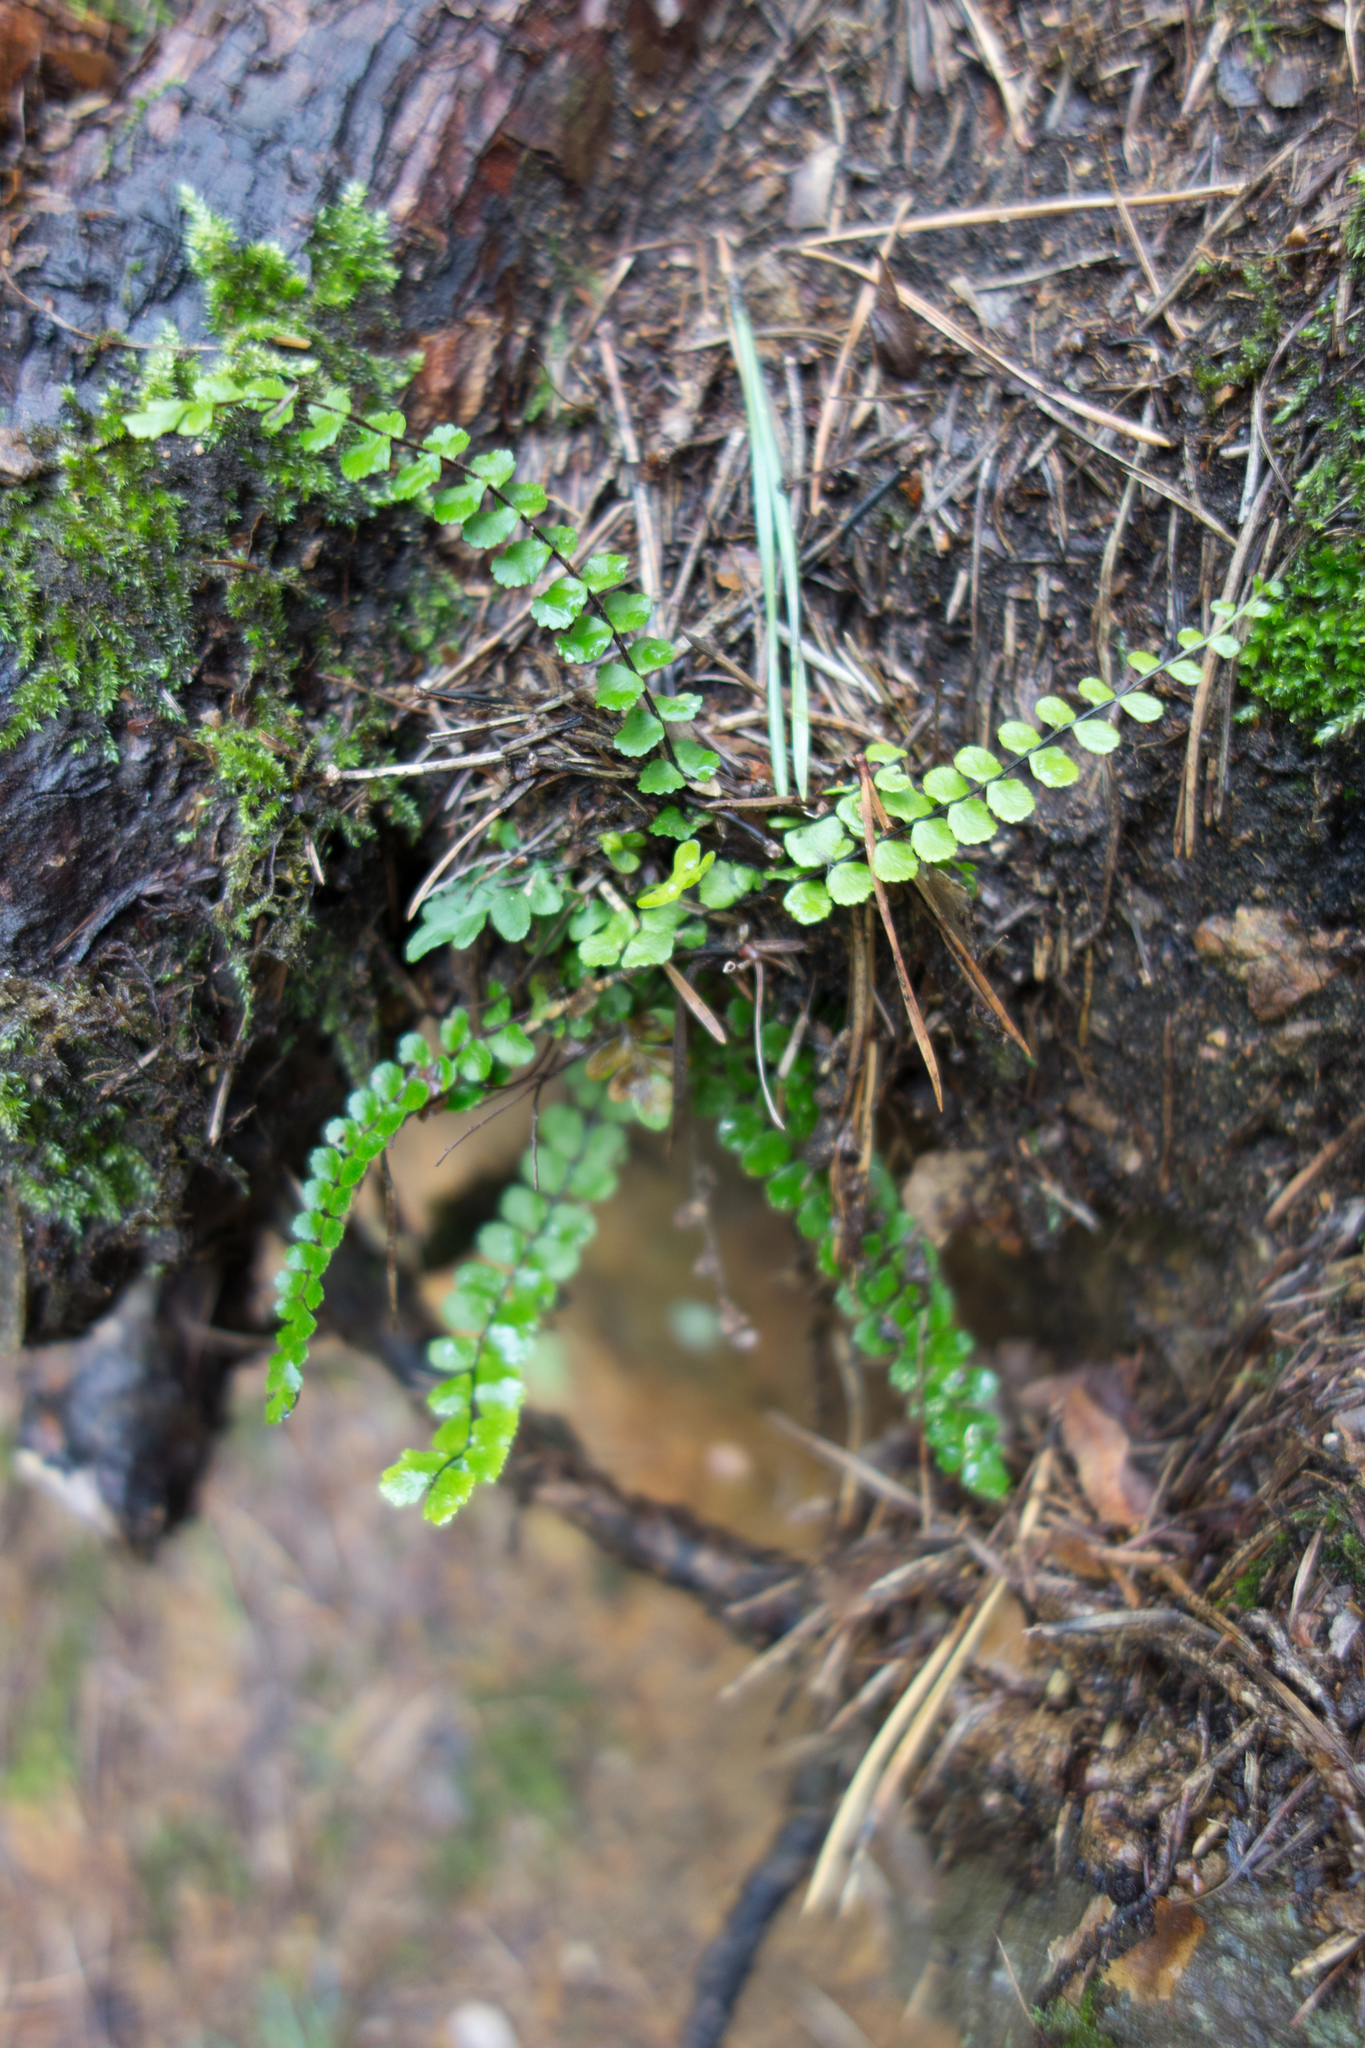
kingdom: Plantae
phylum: Tracheophyta
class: Polypodiopsida
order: Polypodiales
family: Aspleniaceae
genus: Asplenium
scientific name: Asplenium trichomanes
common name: Maidenhair spleenwort
